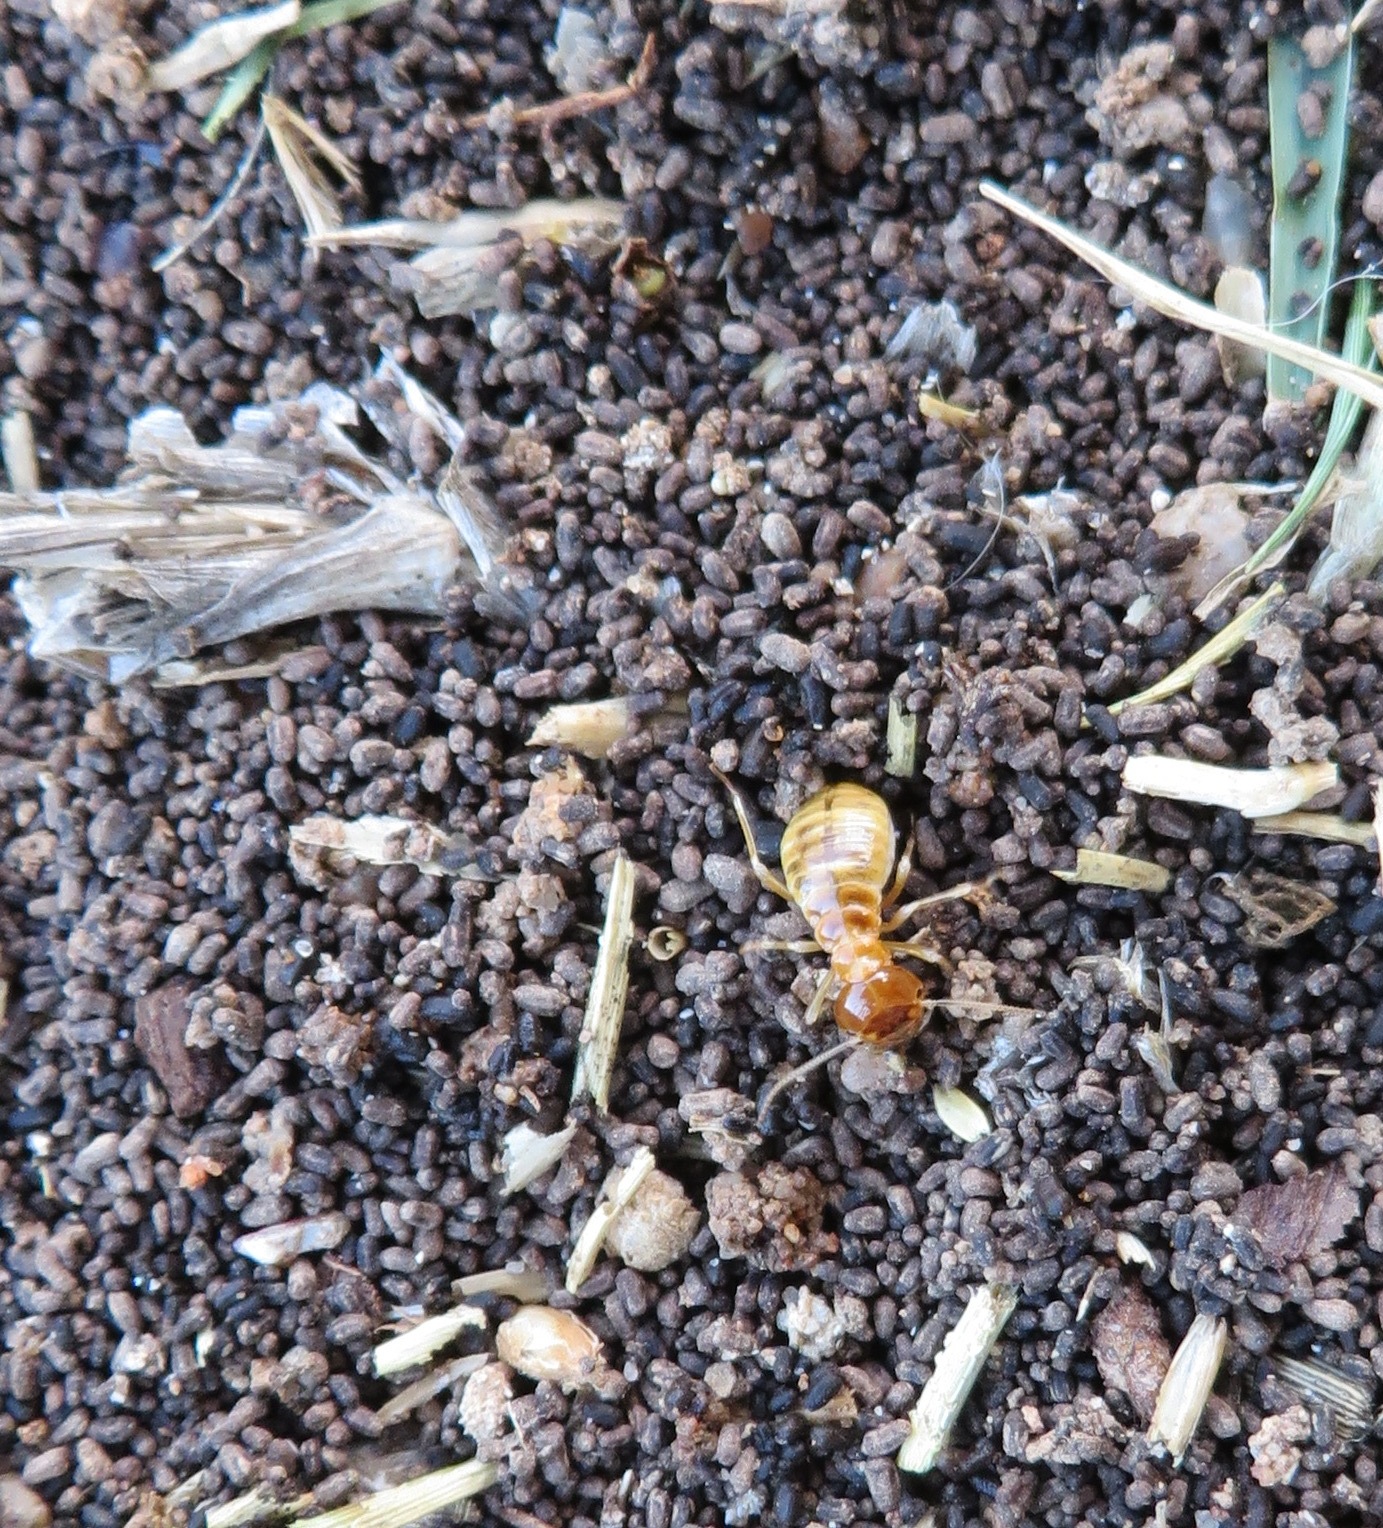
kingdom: Animalia
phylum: Arthropoda
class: Insecta
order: Blattodea
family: Hodotermitidae
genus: Microhodotermes
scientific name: Microhodotermes viator
